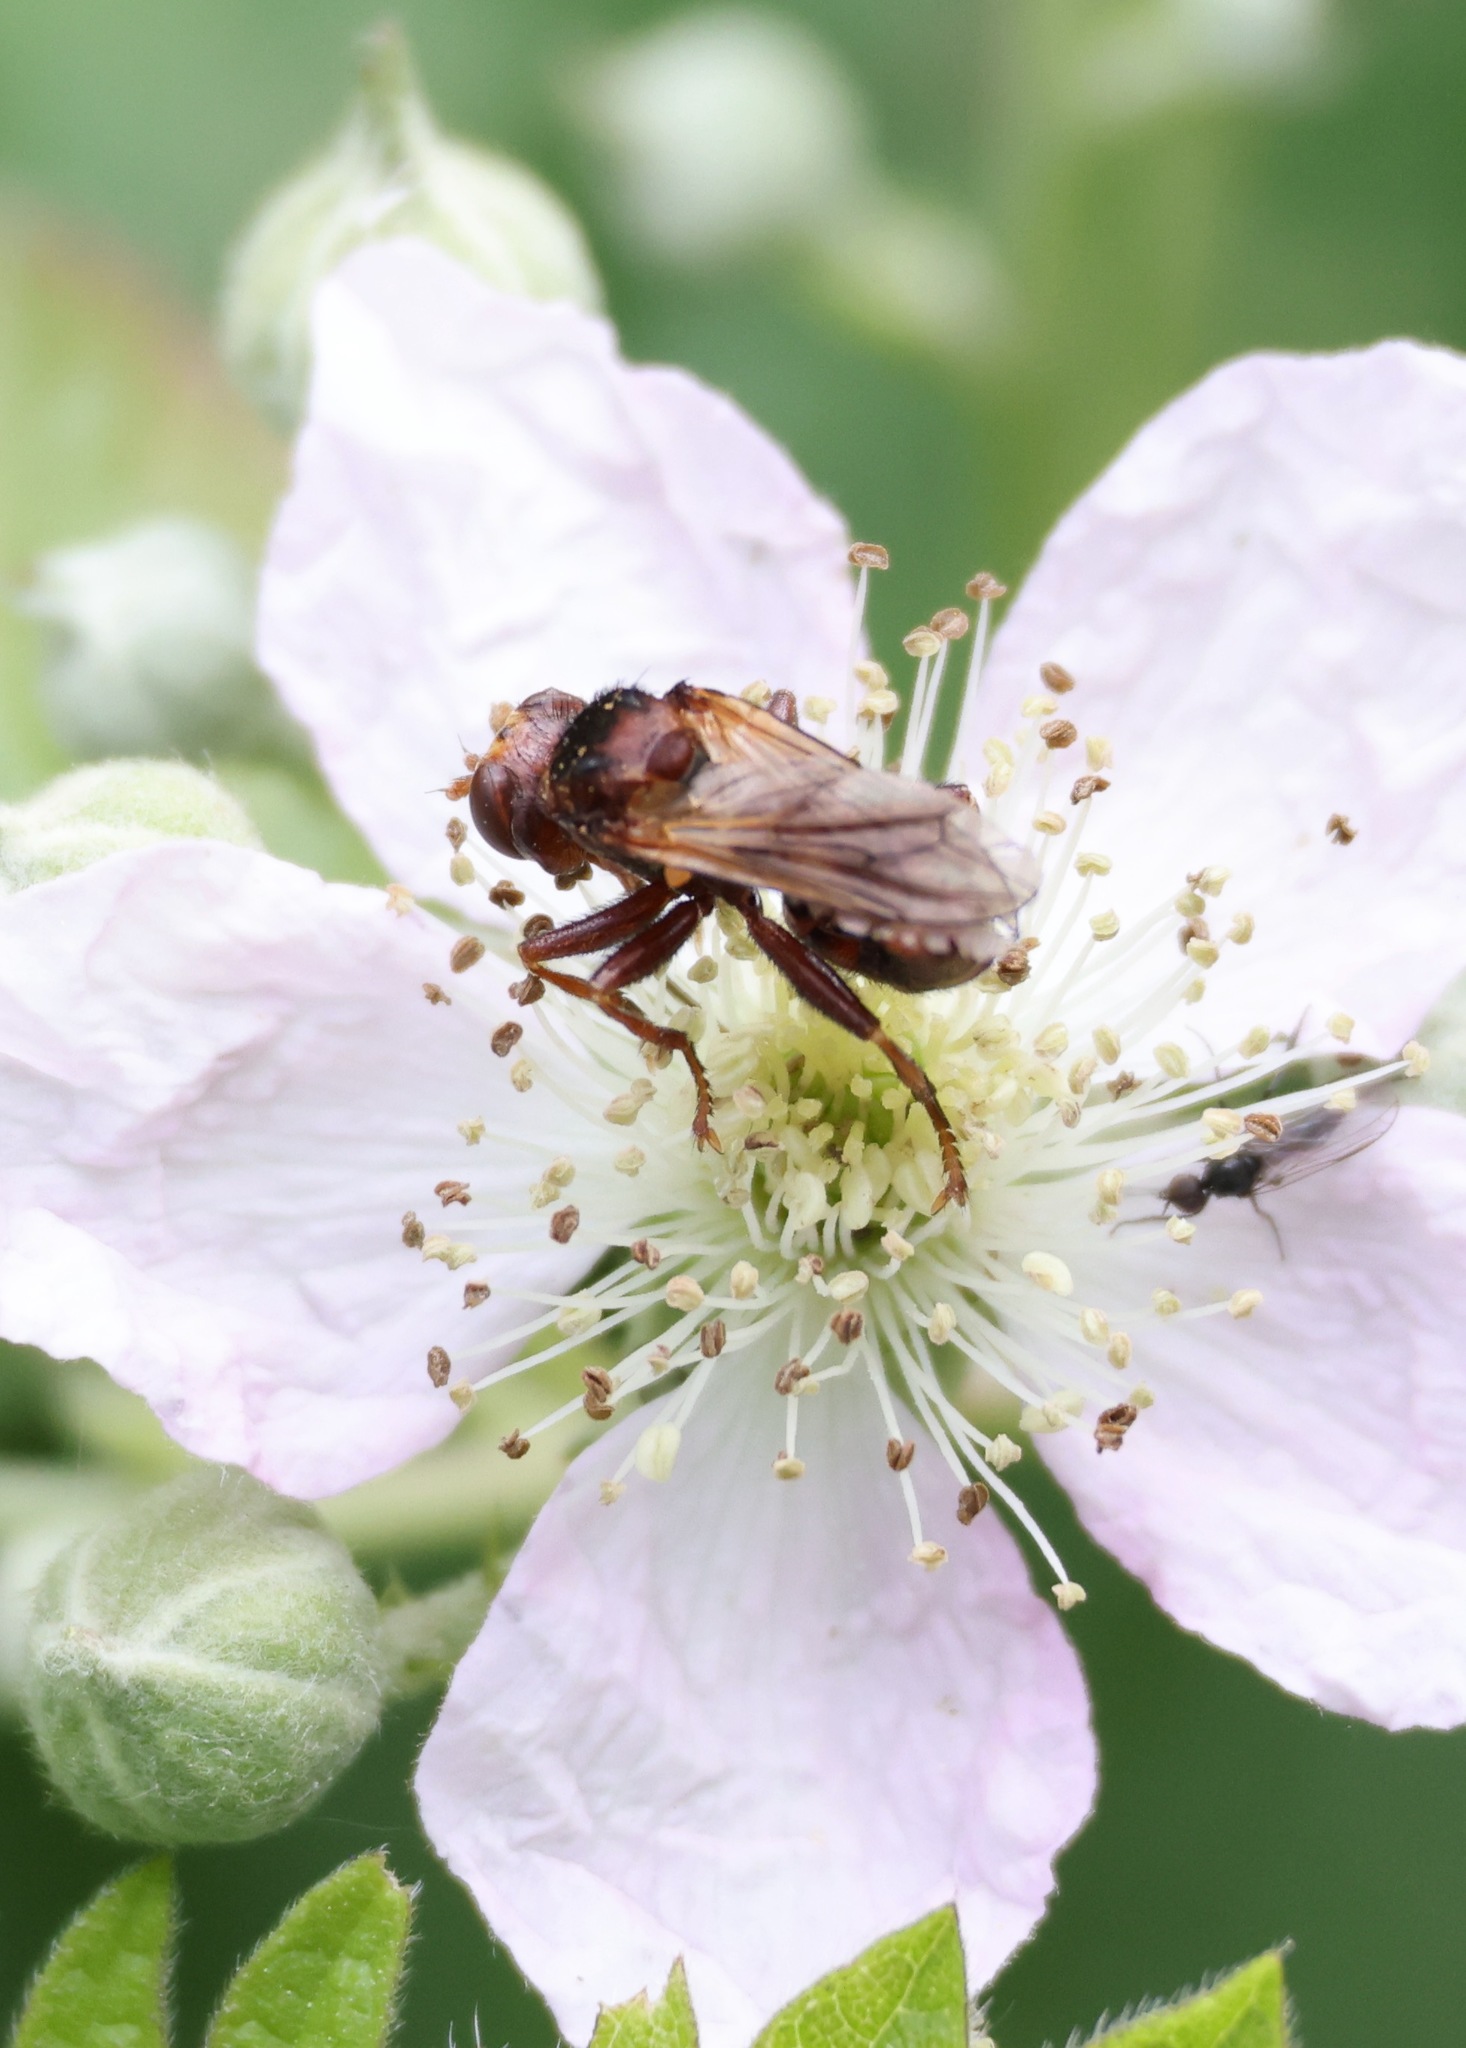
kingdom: Animalia
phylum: Arthropoda
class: Insecta
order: Diptera
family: Conopidae
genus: Sicus
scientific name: Sicus ferrugineus
